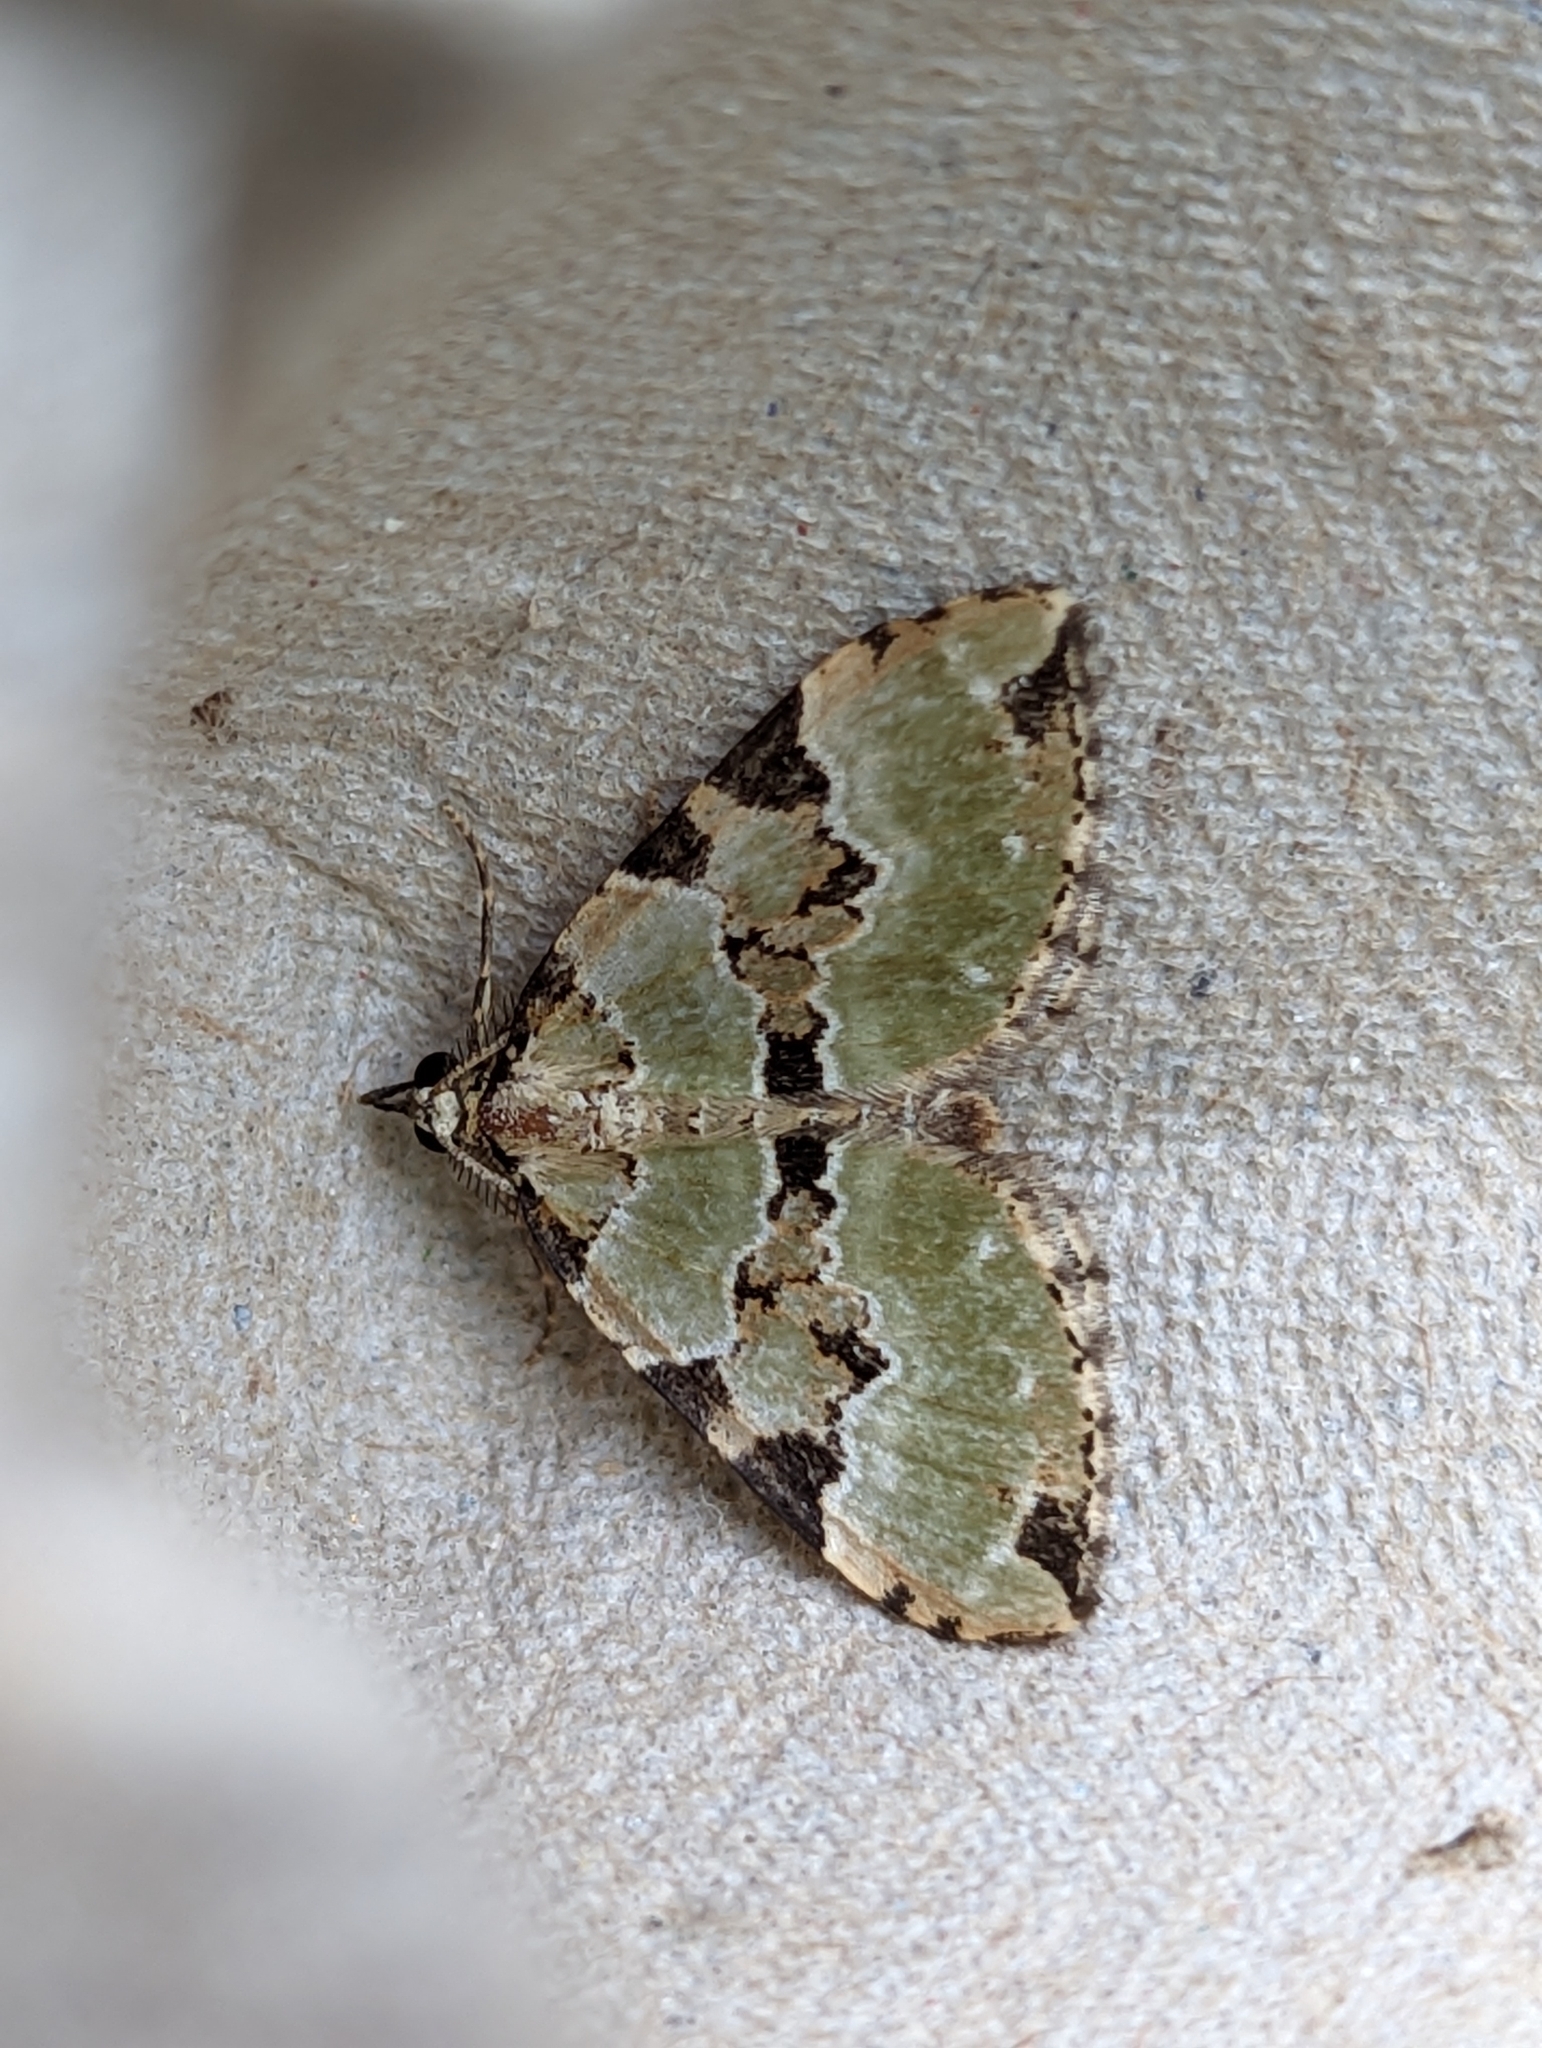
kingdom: Animalia
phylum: Arthropoda
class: Insecta
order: Lepidoptera
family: Geometridae
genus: Colostygia
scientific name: Colostygia pectinataria
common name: Green carpet
